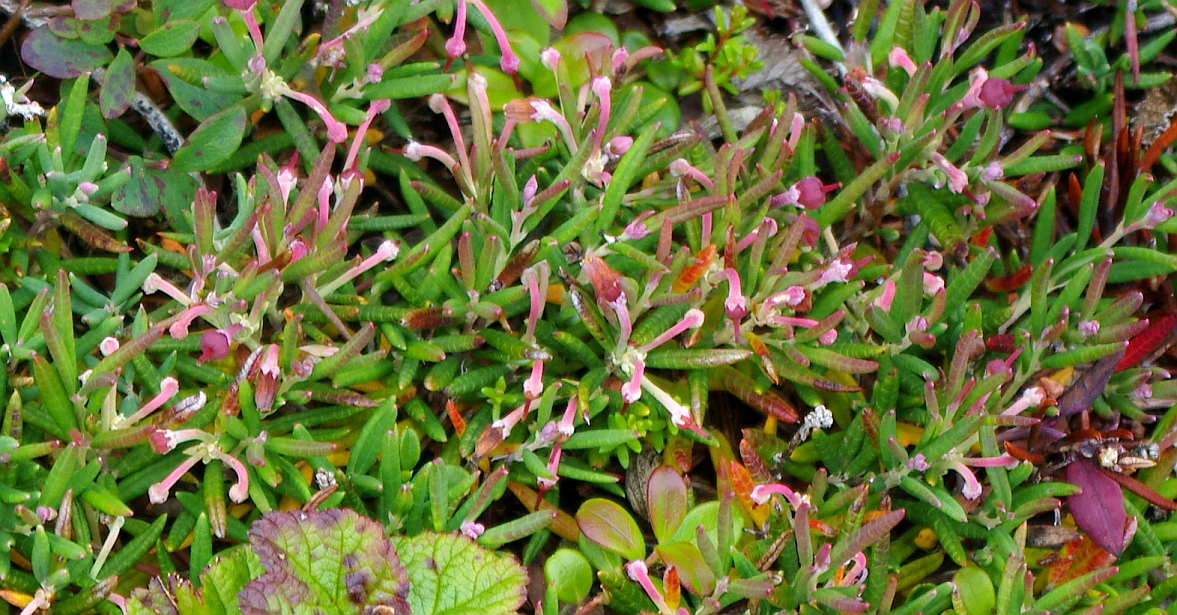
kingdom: Plantae
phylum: Tracheophyta
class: Magnoliopsida
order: Ericales
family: Ericaceae
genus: Andromeda
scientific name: Andromeda polifolia
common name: Bog-rosemary
